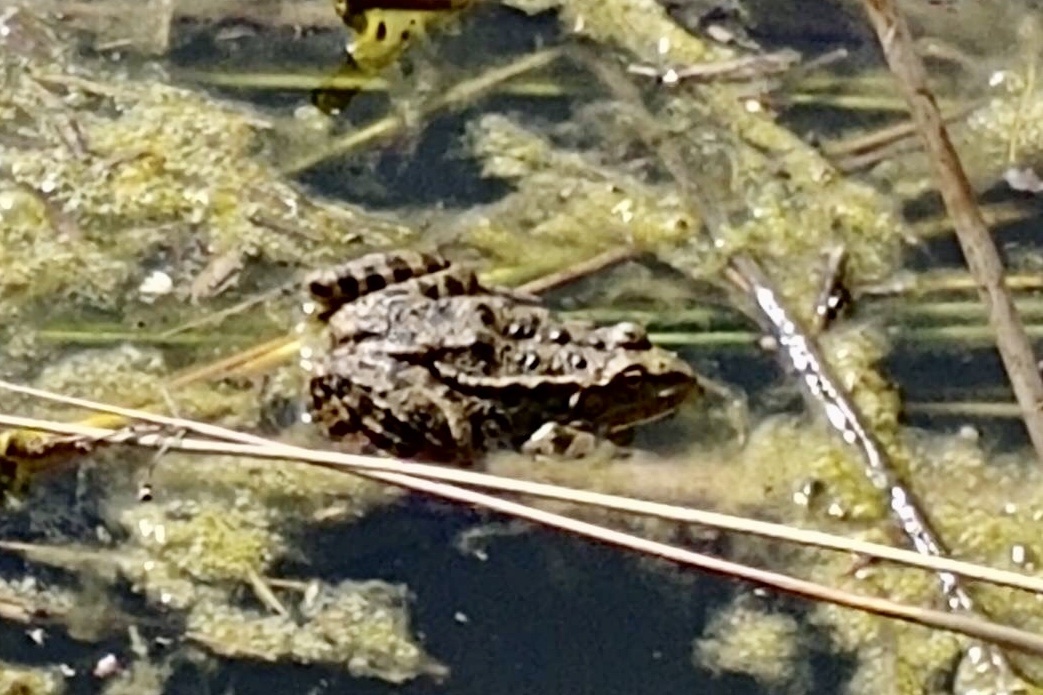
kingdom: Animalia
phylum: Chordata
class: Amphibia
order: Anura
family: Ranidae
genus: Pelophylax
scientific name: Pelophylax
